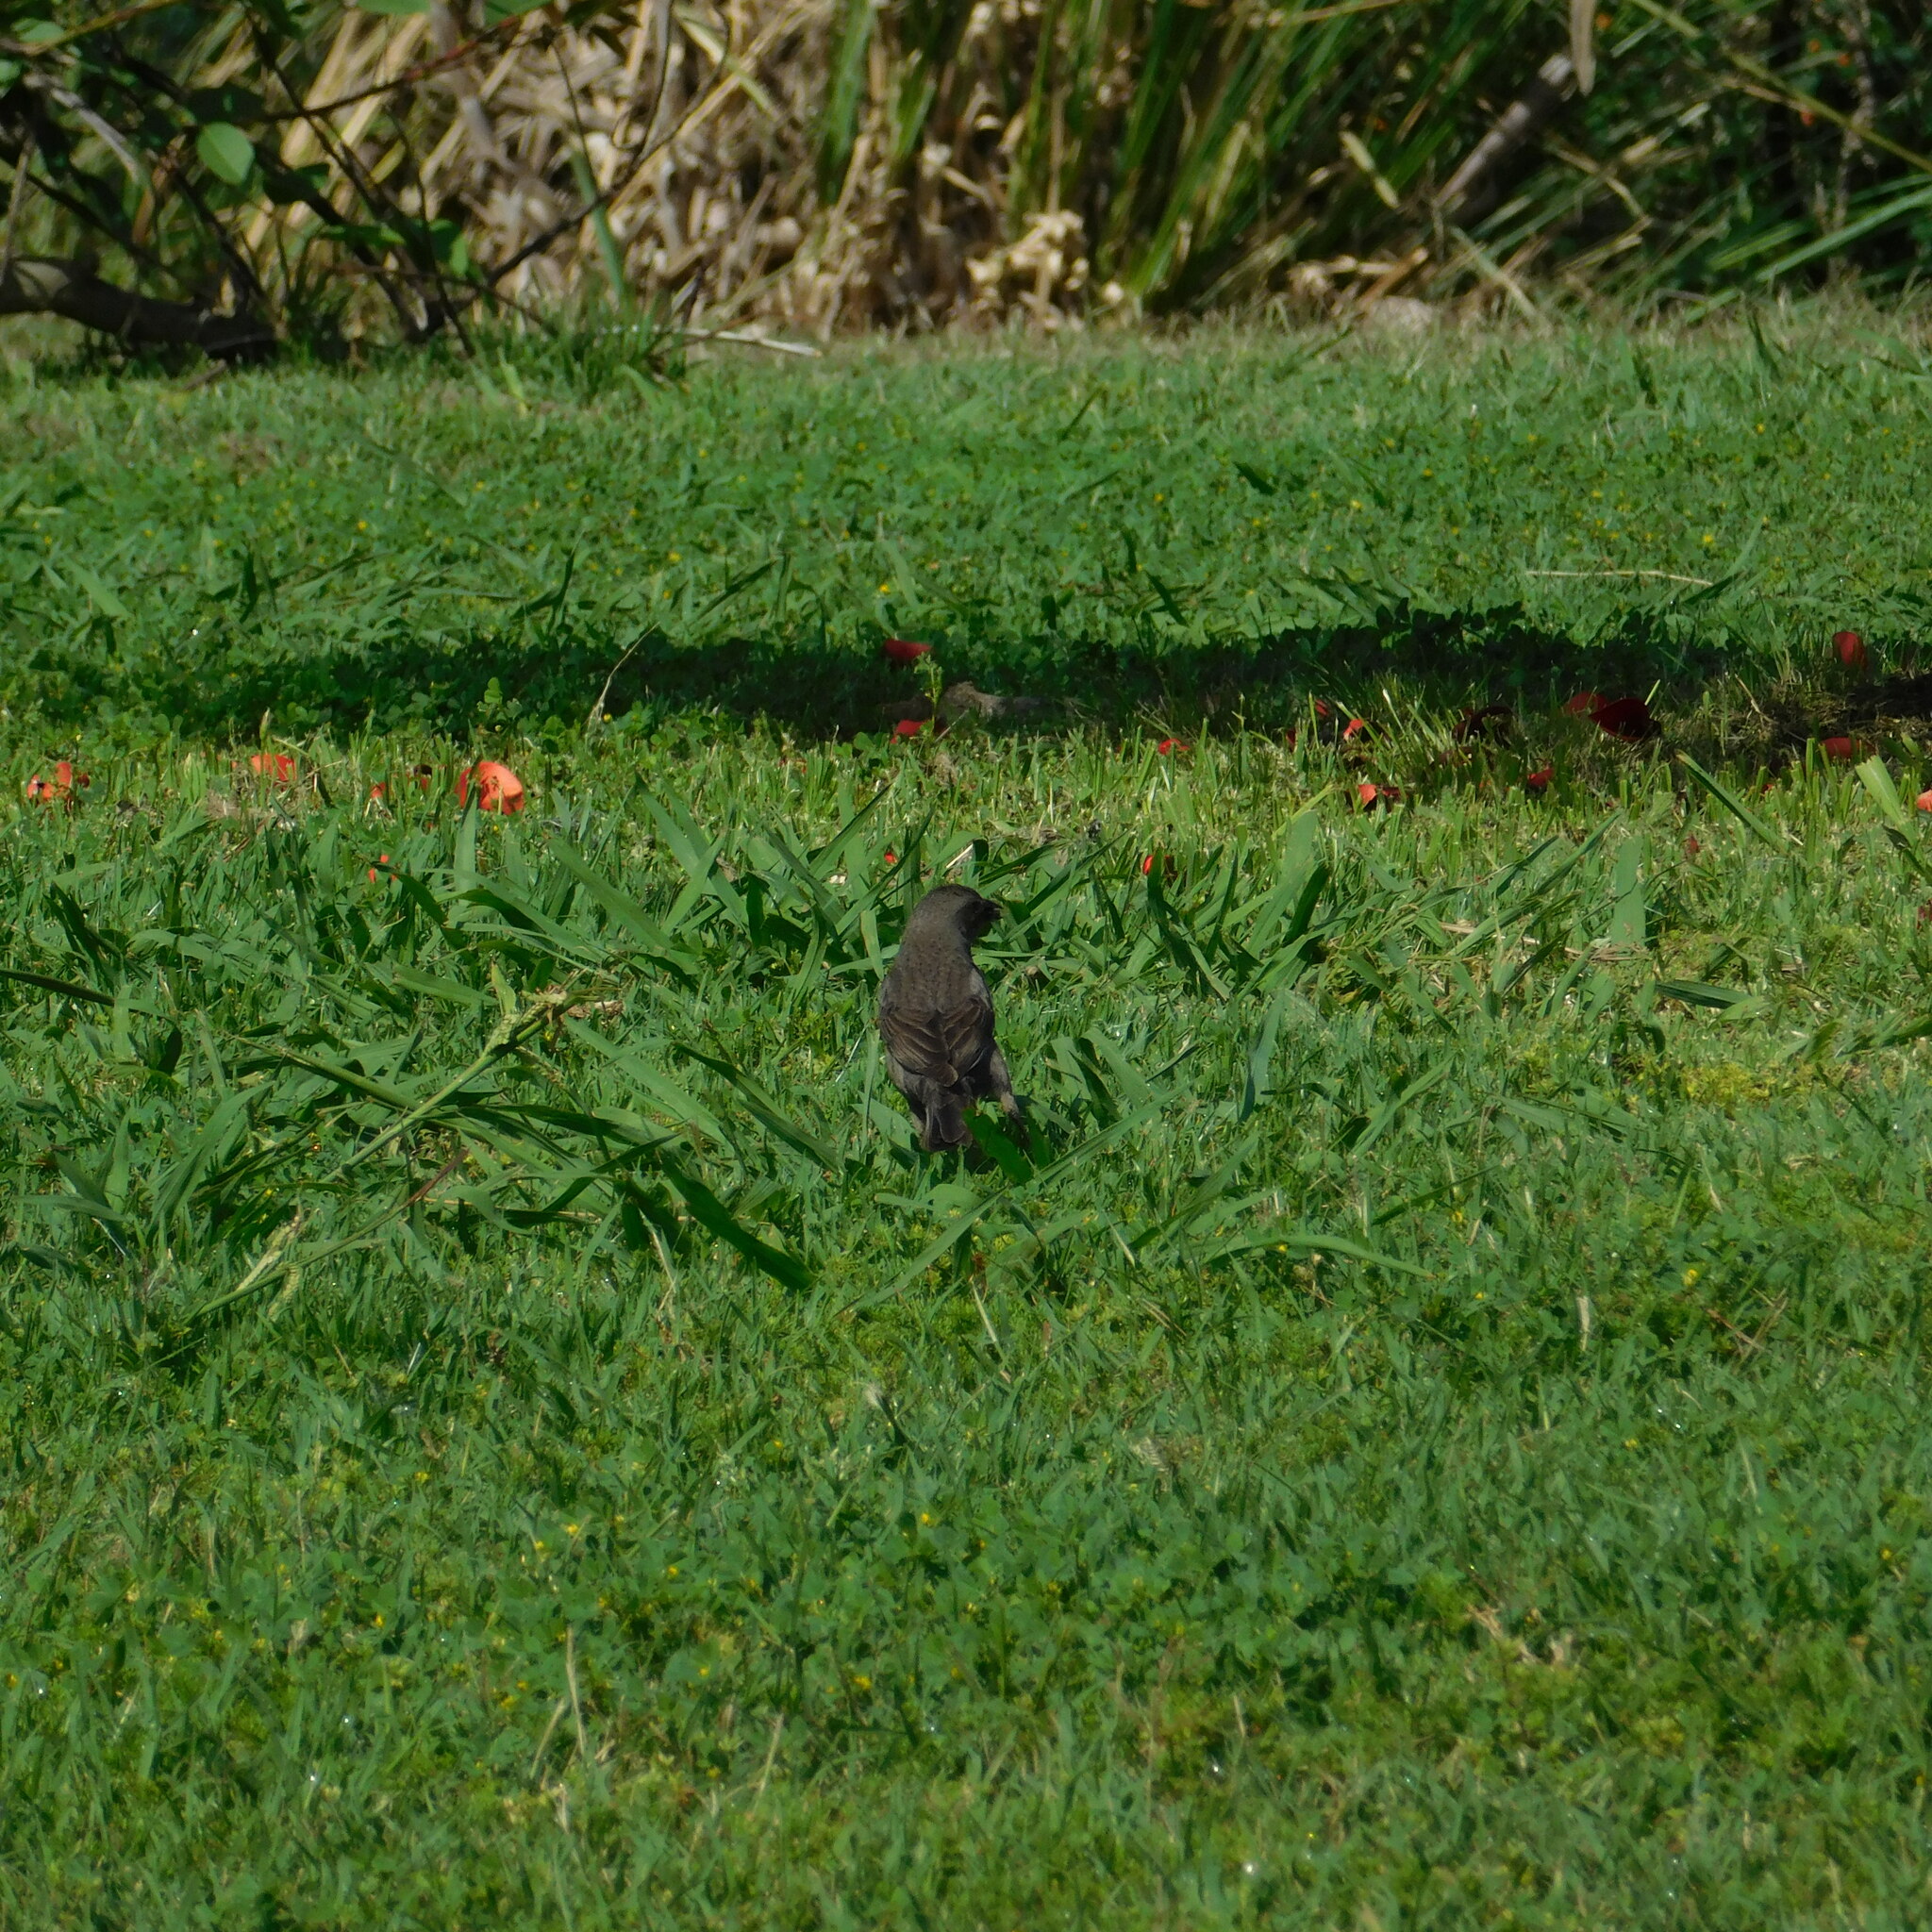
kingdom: Animalia
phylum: Chordata
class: Aves
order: Passeriformes
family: Icteridae
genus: Molothrus
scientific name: Molothrus bonariensis
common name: Shiny cowbird
